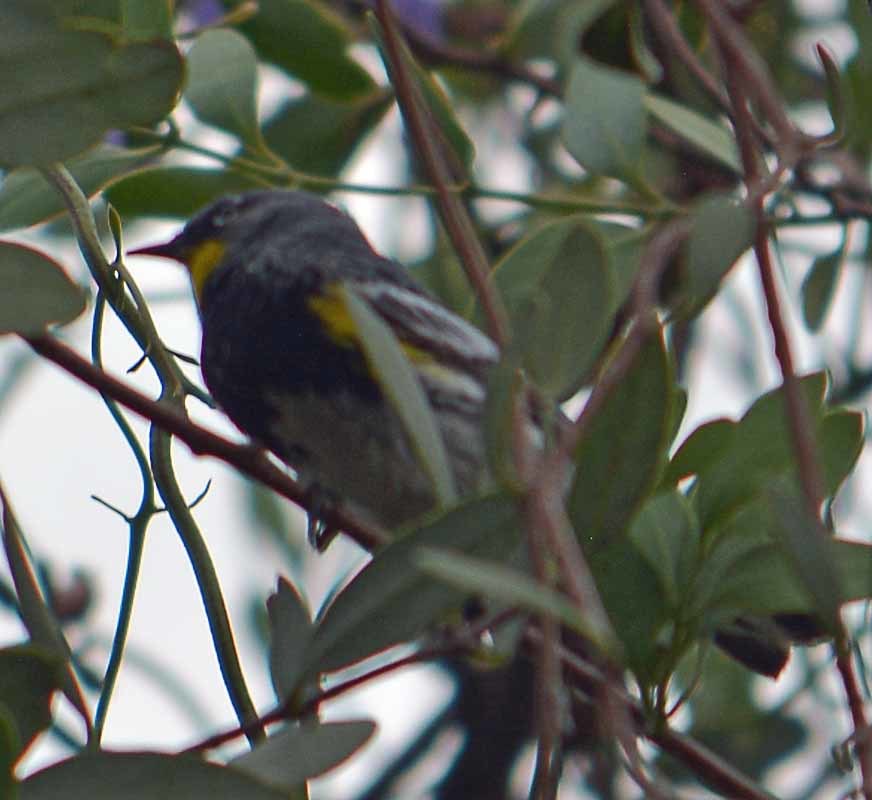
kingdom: Animalia
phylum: Chordata
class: Aves
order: Passeriformes
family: Parulidae
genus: Setophaga
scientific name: Setophaga auduboni
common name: Audubon's warbler
